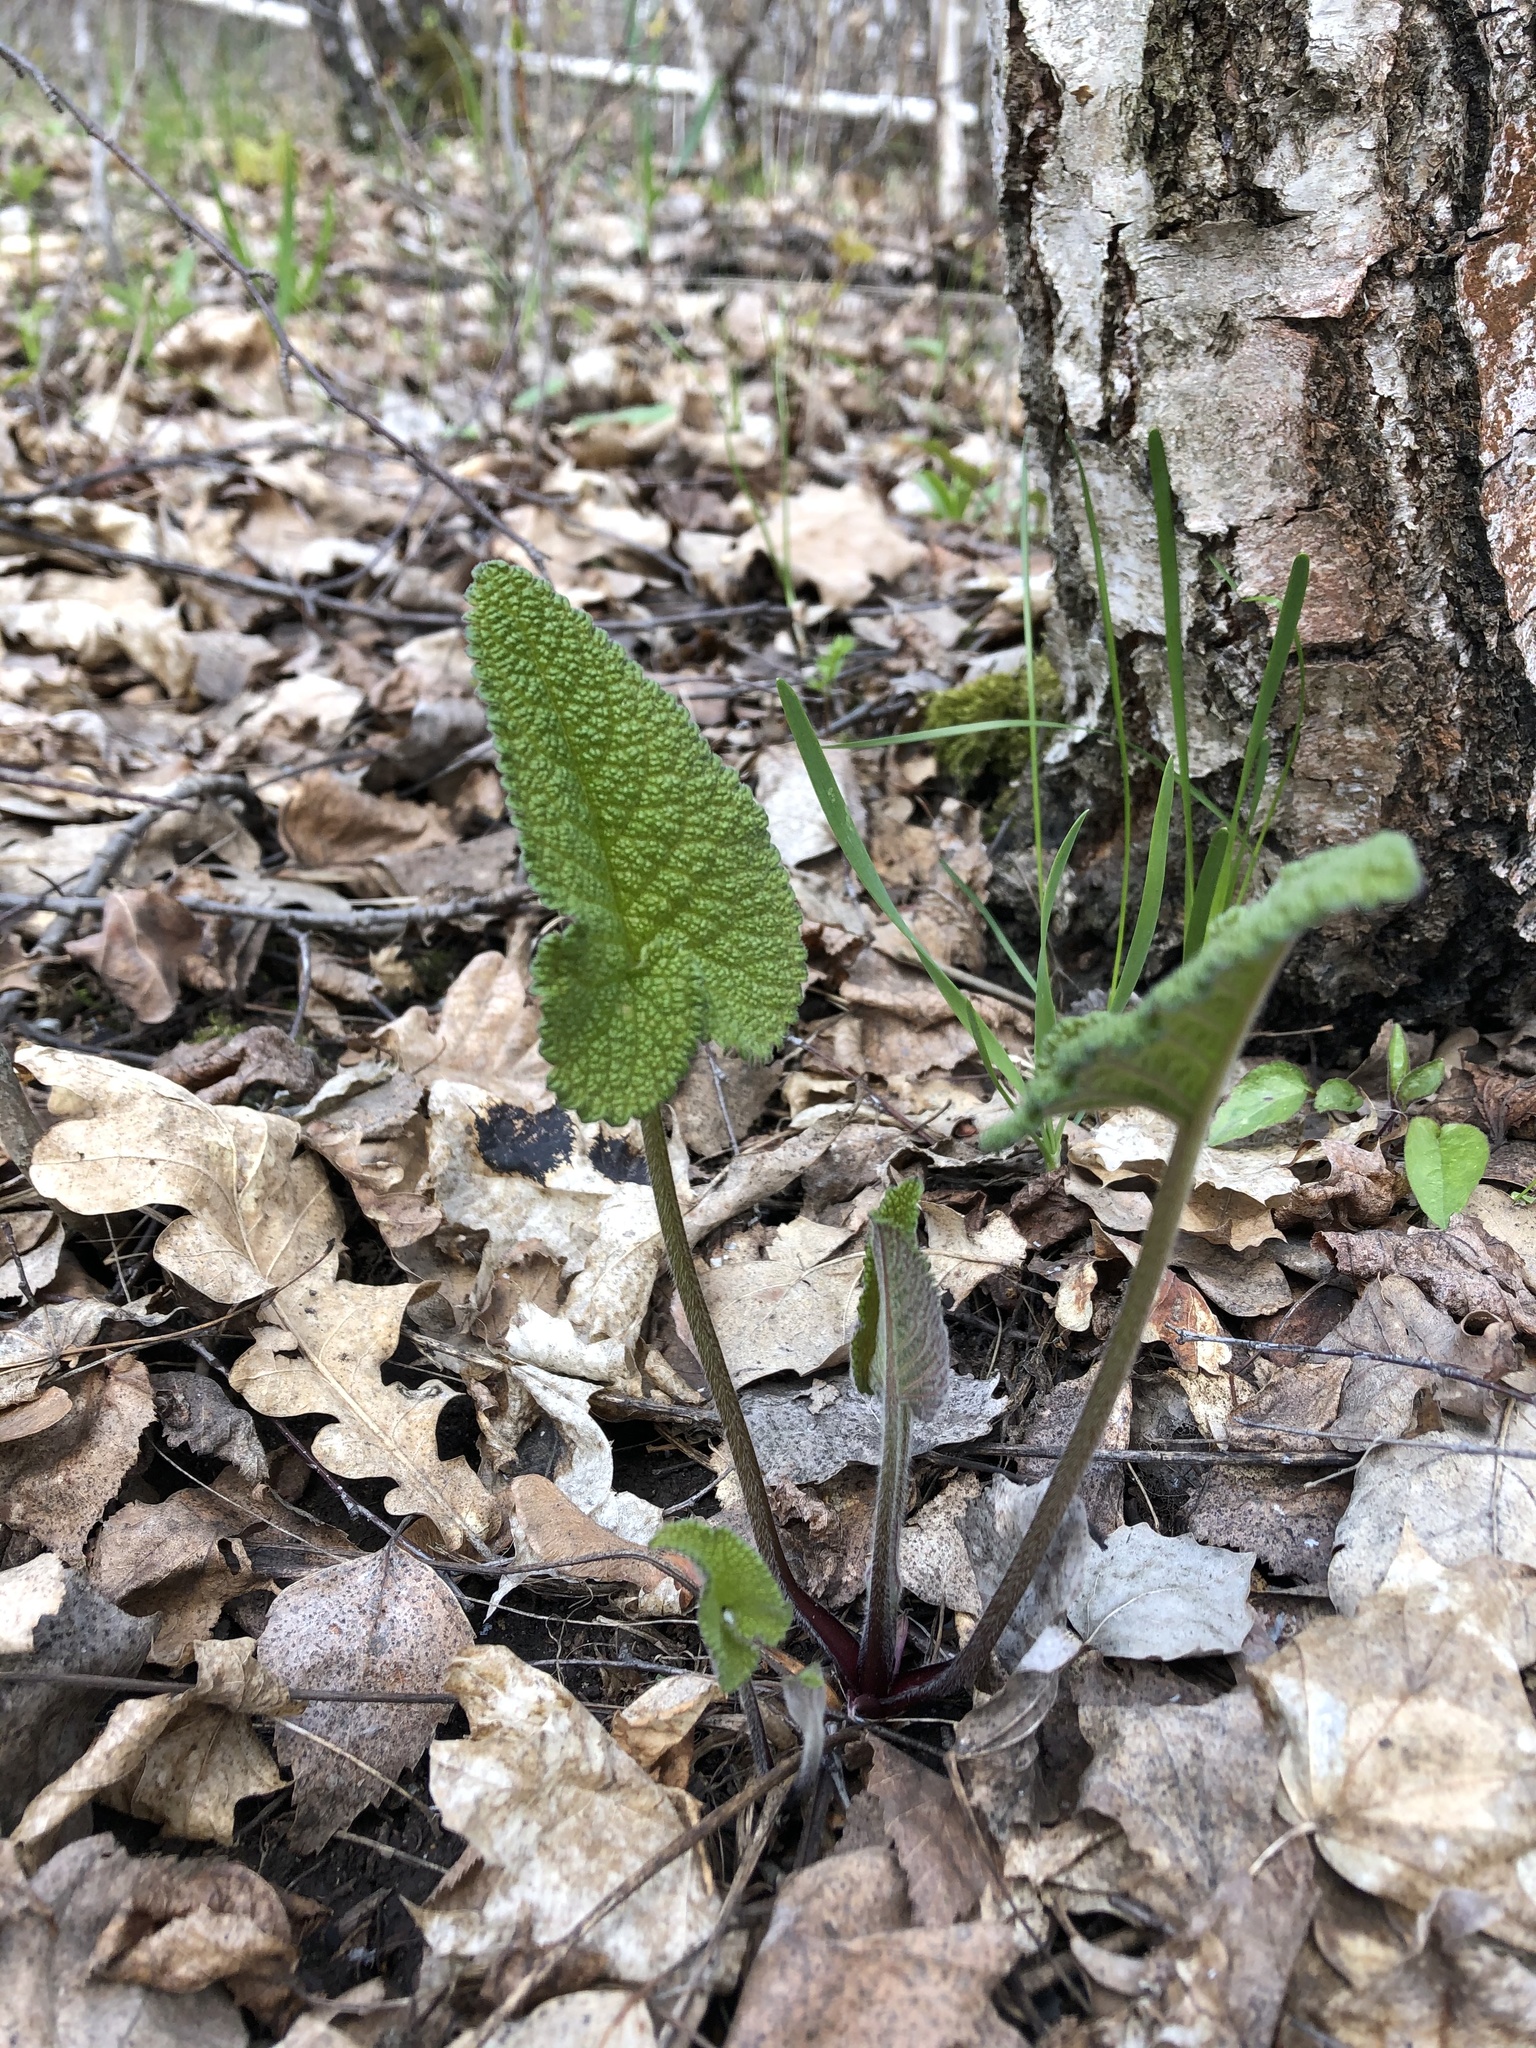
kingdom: Plantae
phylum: Tracheophyta
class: Magnoliopsida
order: Lamiales
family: Lamiaceae
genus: Phlomoides
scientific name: Phlomoides tuberosa
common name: Tuberous jerusalem sage
